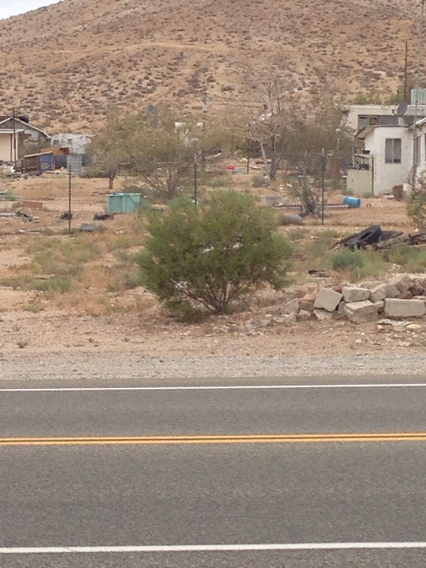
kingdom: Plantae
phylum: Tracheophyta
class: Magnoliopsida
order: Zygophyllales
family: Zygophyllaceae
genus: Larrea
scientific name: Larrea tridentata
